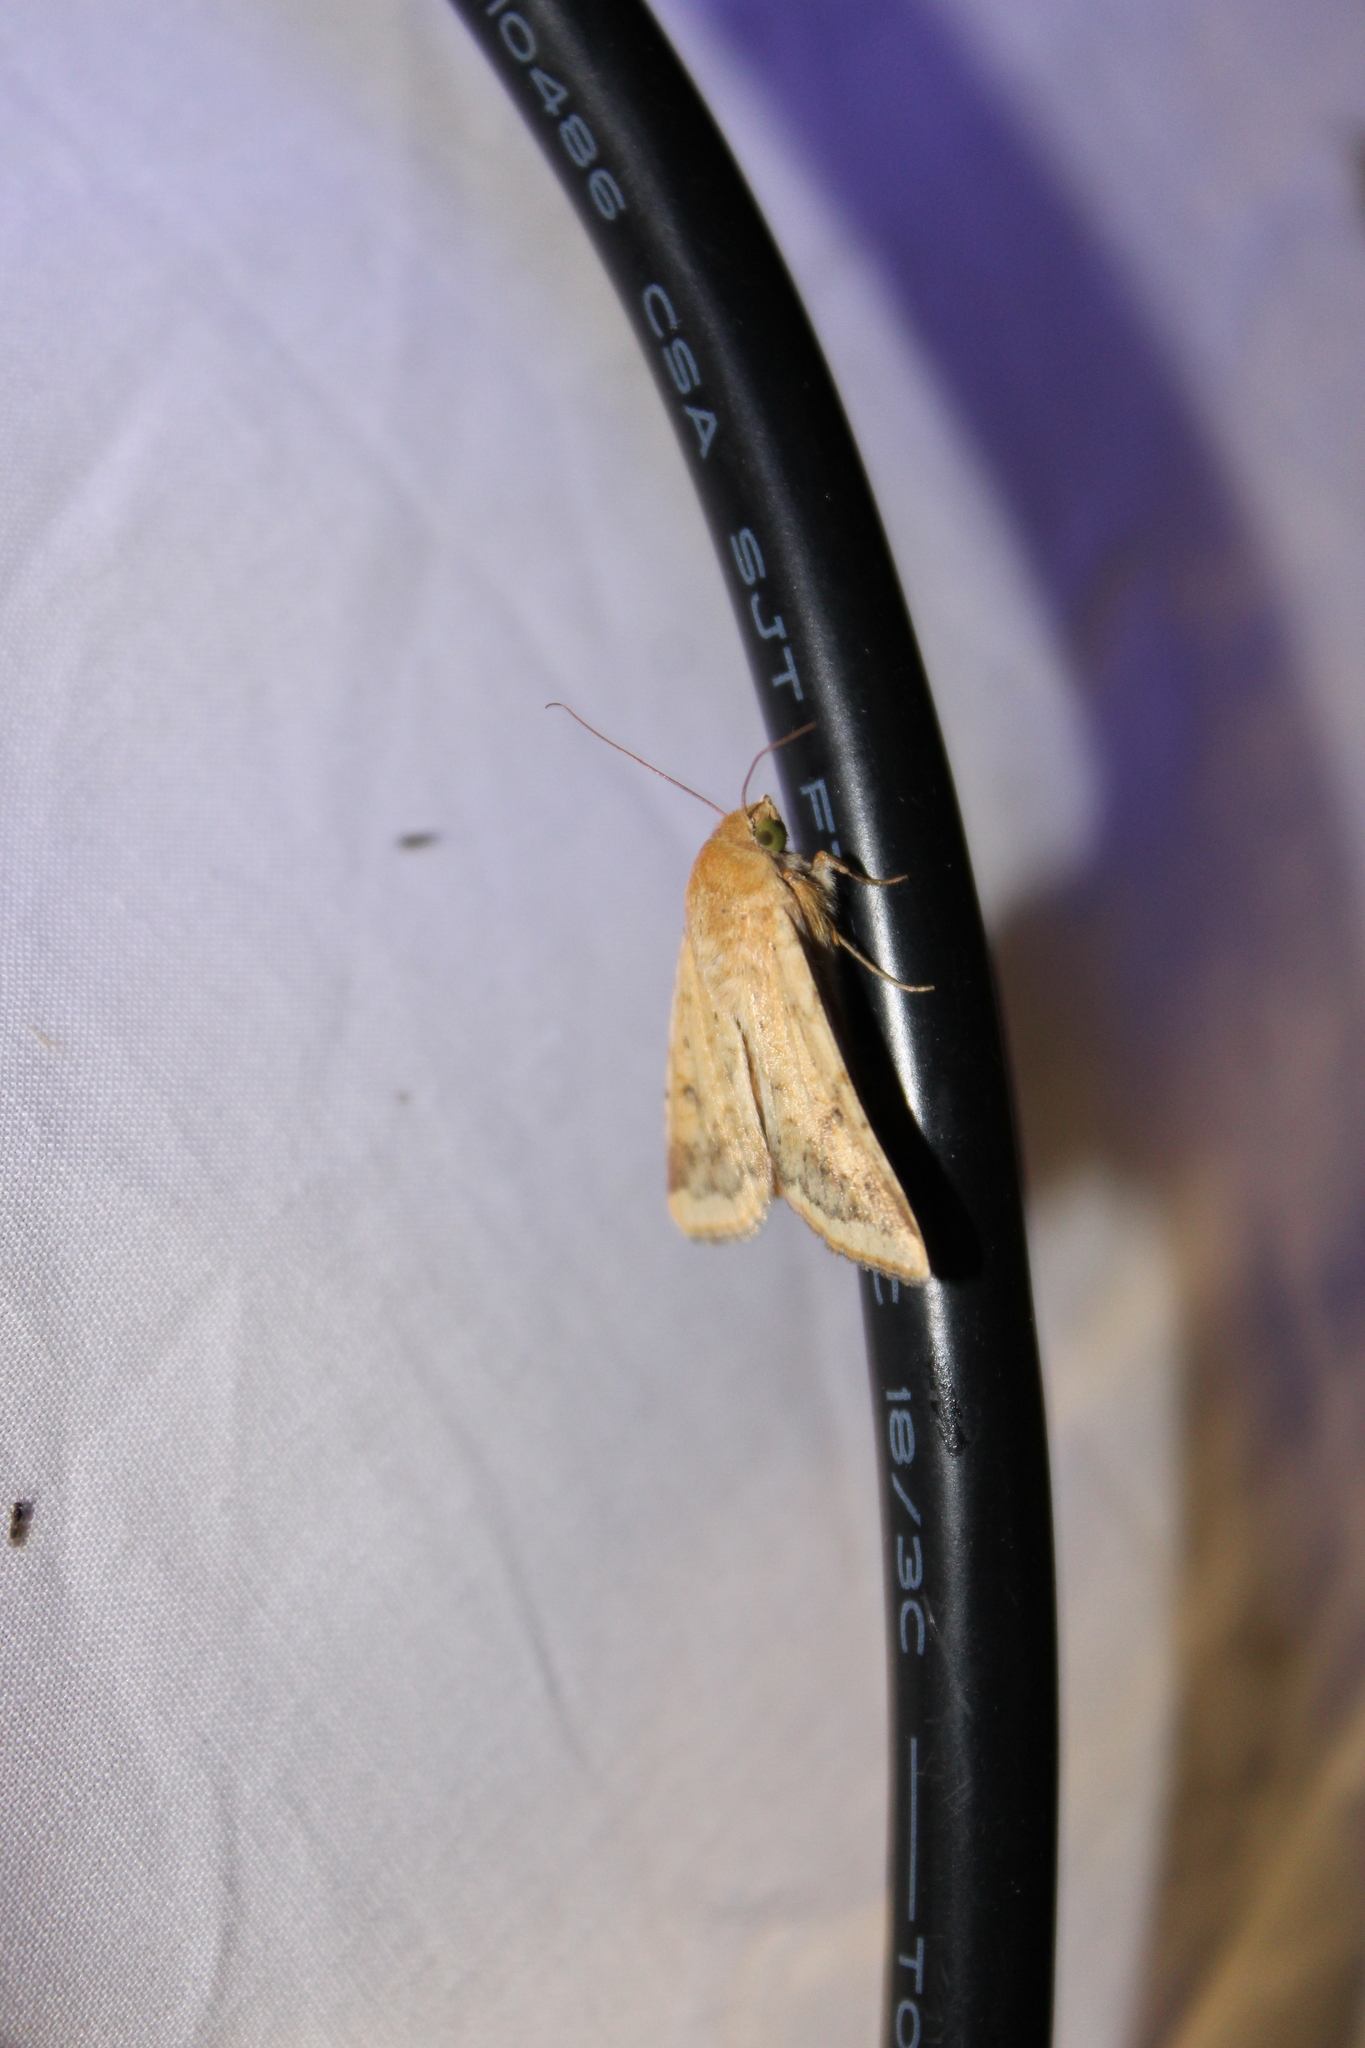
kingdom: Animalia
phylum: Arthropoda
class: Insecta
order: Lepidoptera
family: Noctuidae
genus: Helicoverpa
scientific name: Helicoverpa zea
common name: Bollworm
